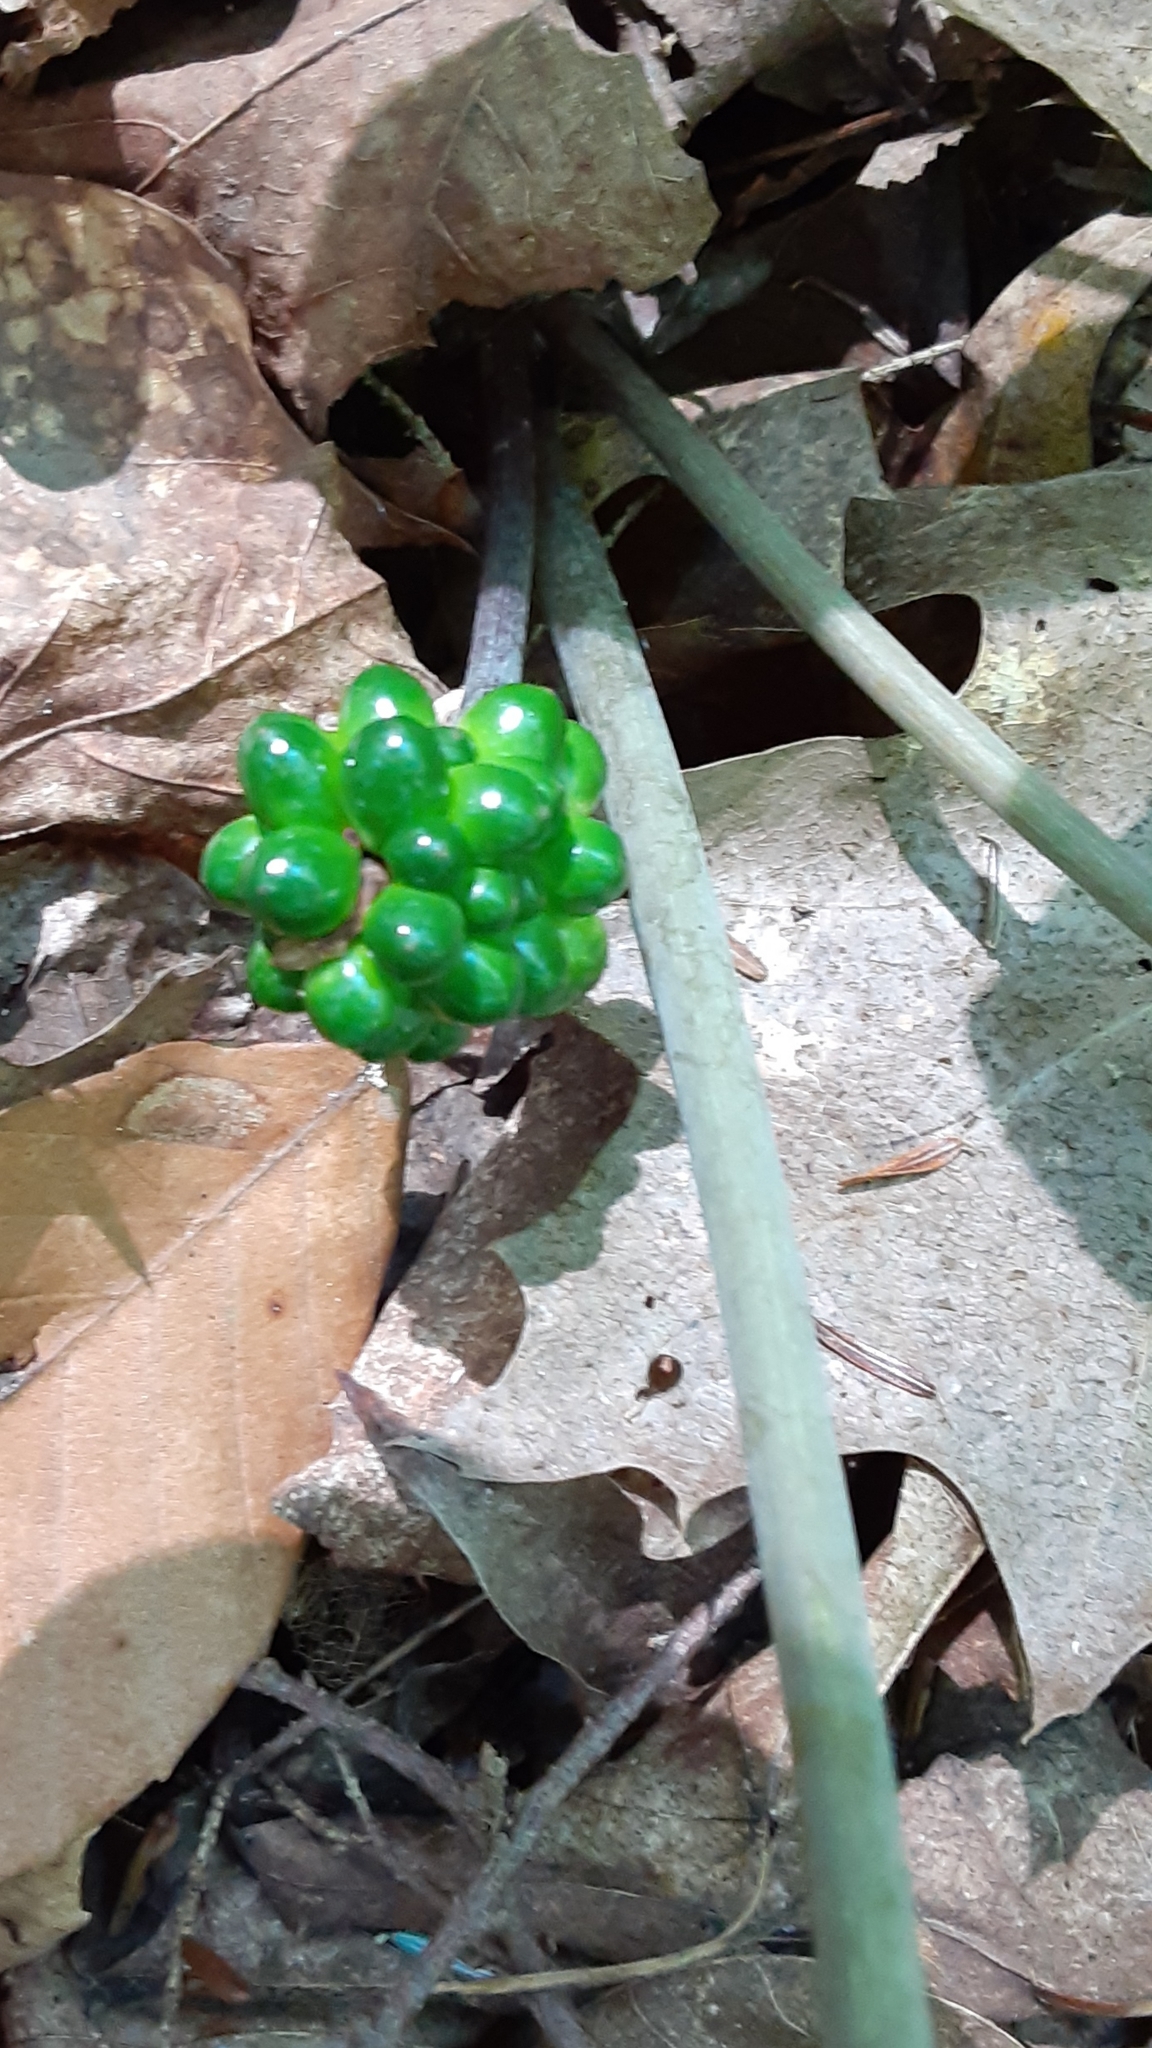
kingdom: Plantae
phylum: Tracheophyta
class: Liliopsida
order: Alismatales
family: Araceae
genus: Arisaema
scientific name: Arisaema triphyllum
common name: Jack-in-the-pulpit
